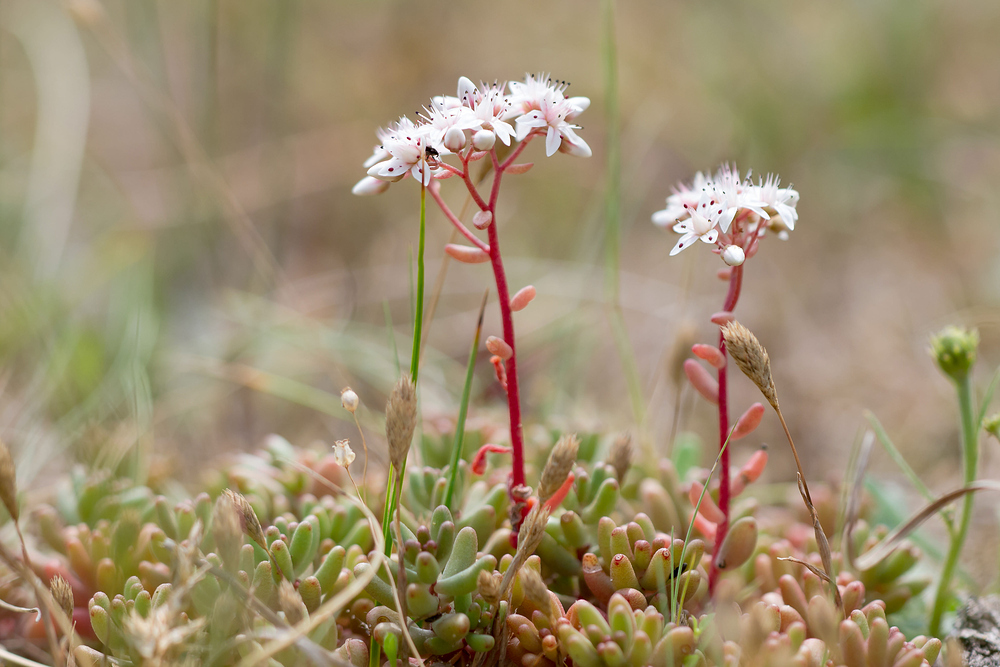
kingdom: Plantae
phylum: Tracheophyta
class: Magnoliopsida
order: Saxifragales
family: Crassulaceae
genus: Sedum
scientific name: Sedum album
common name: White stonecrop
